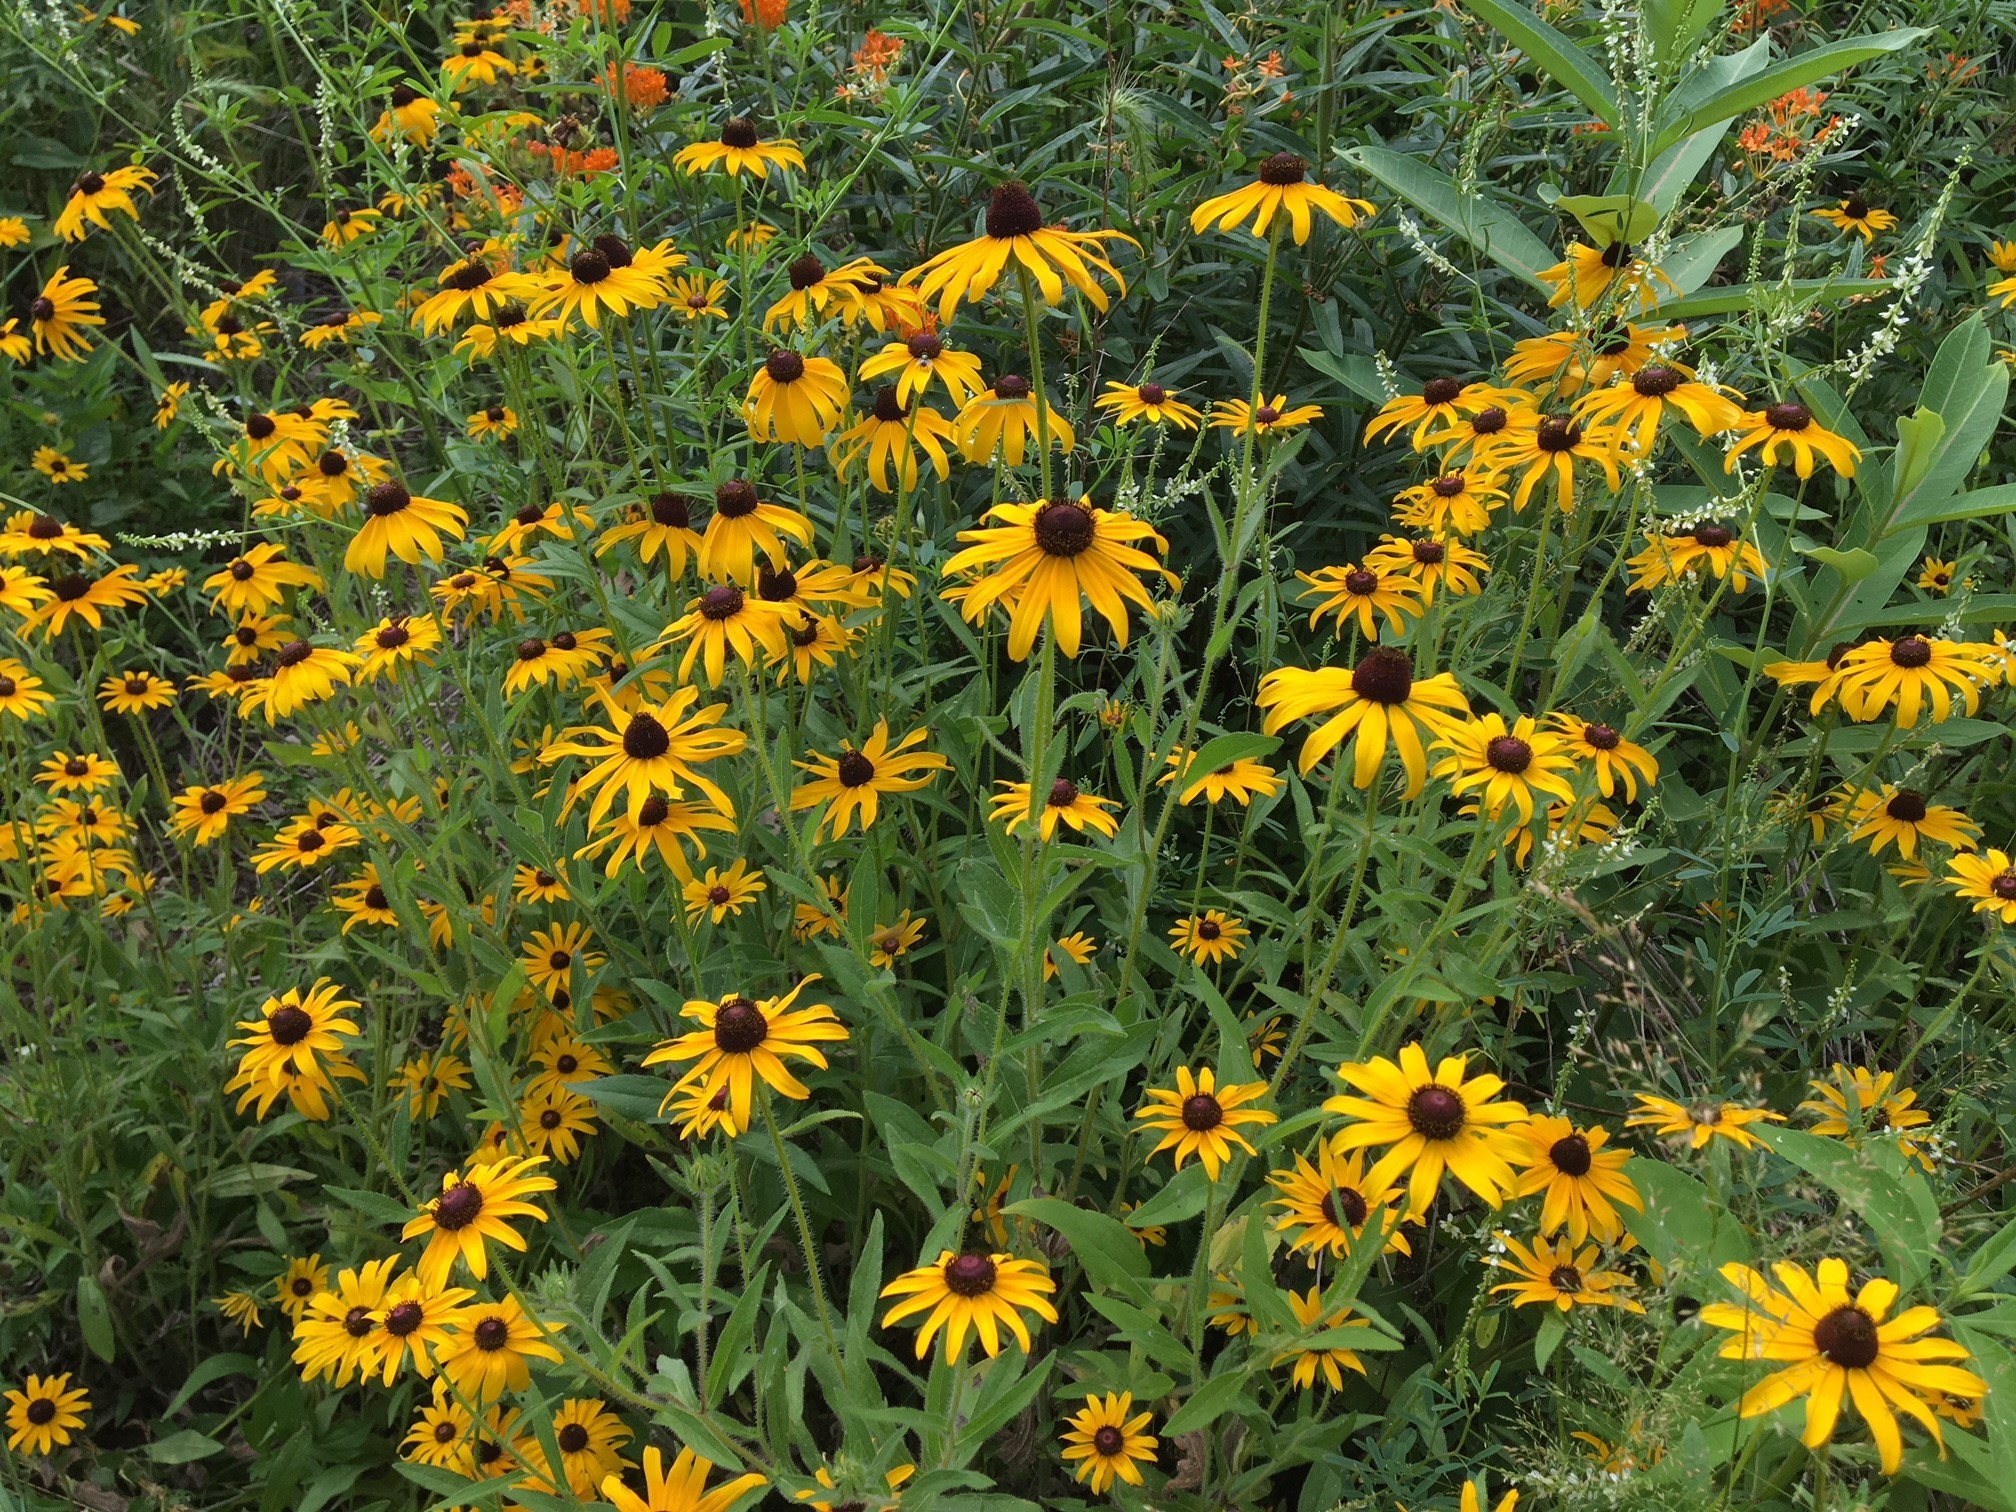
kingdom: Plantae
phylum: Tracheophyta
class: Magnoliopsida
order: Asterales
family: Asteraceae
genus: Rudbeckia
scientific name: Rudbeckia hirta
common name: Black-eyed-susan
